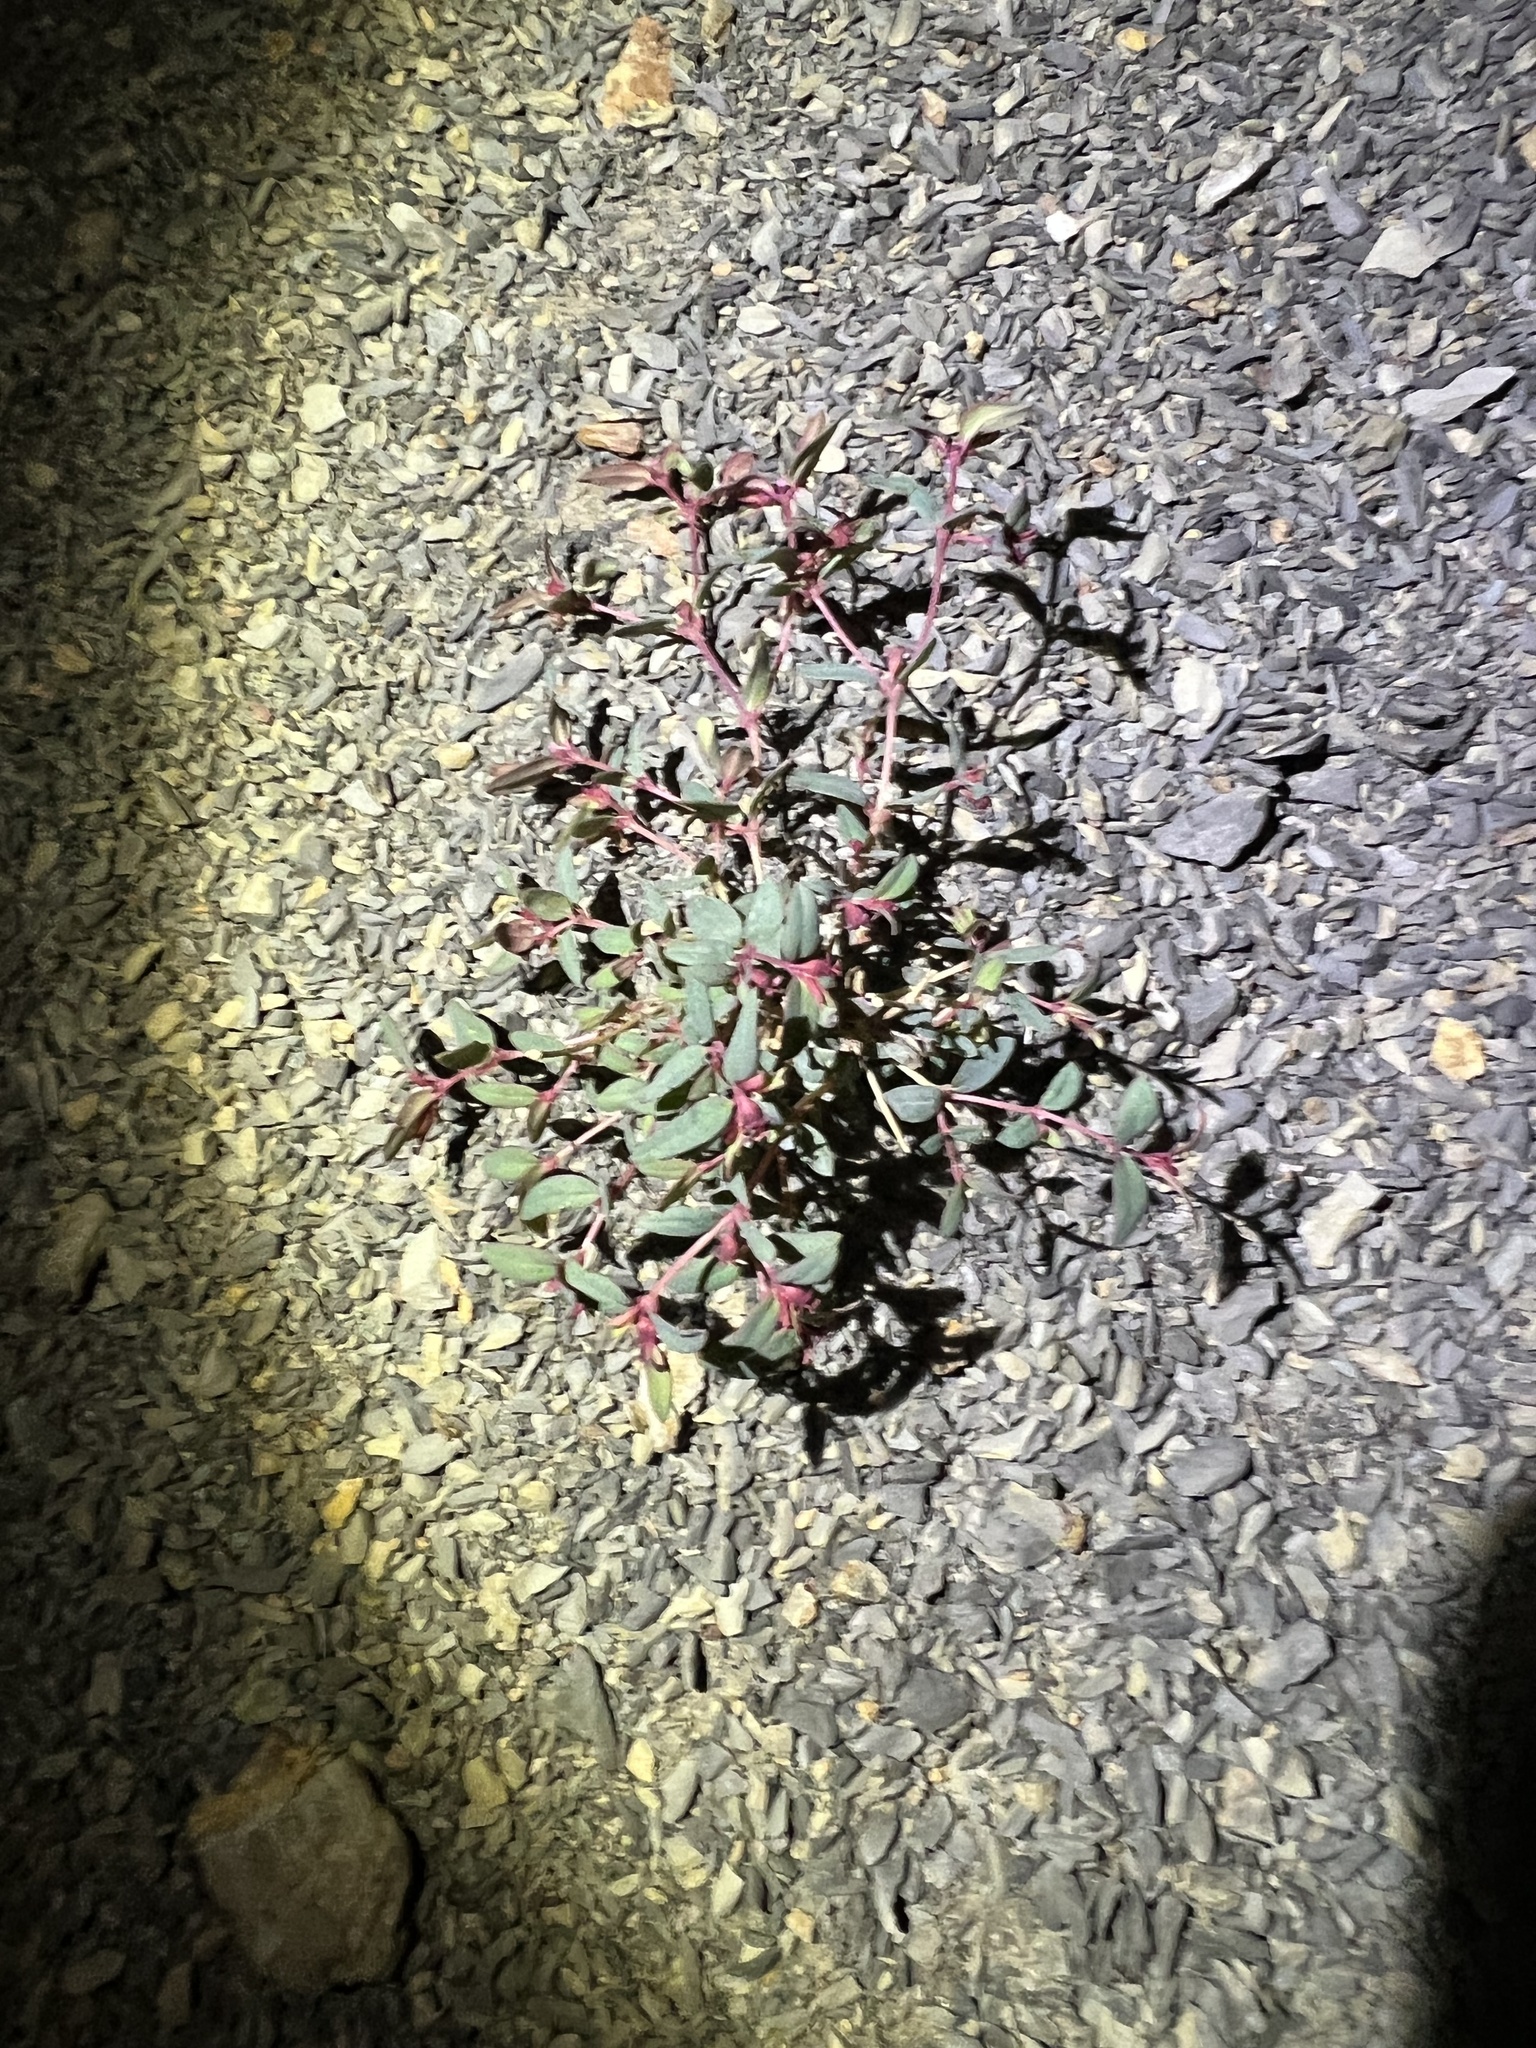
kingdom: Plantae
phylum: Tracheophyta
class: Magnoliopsida
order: Malpighiales
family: Euphorbiaceae
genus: Euphorbia
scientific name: Euphorbia fendleri
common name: Fendler's euphorbia
